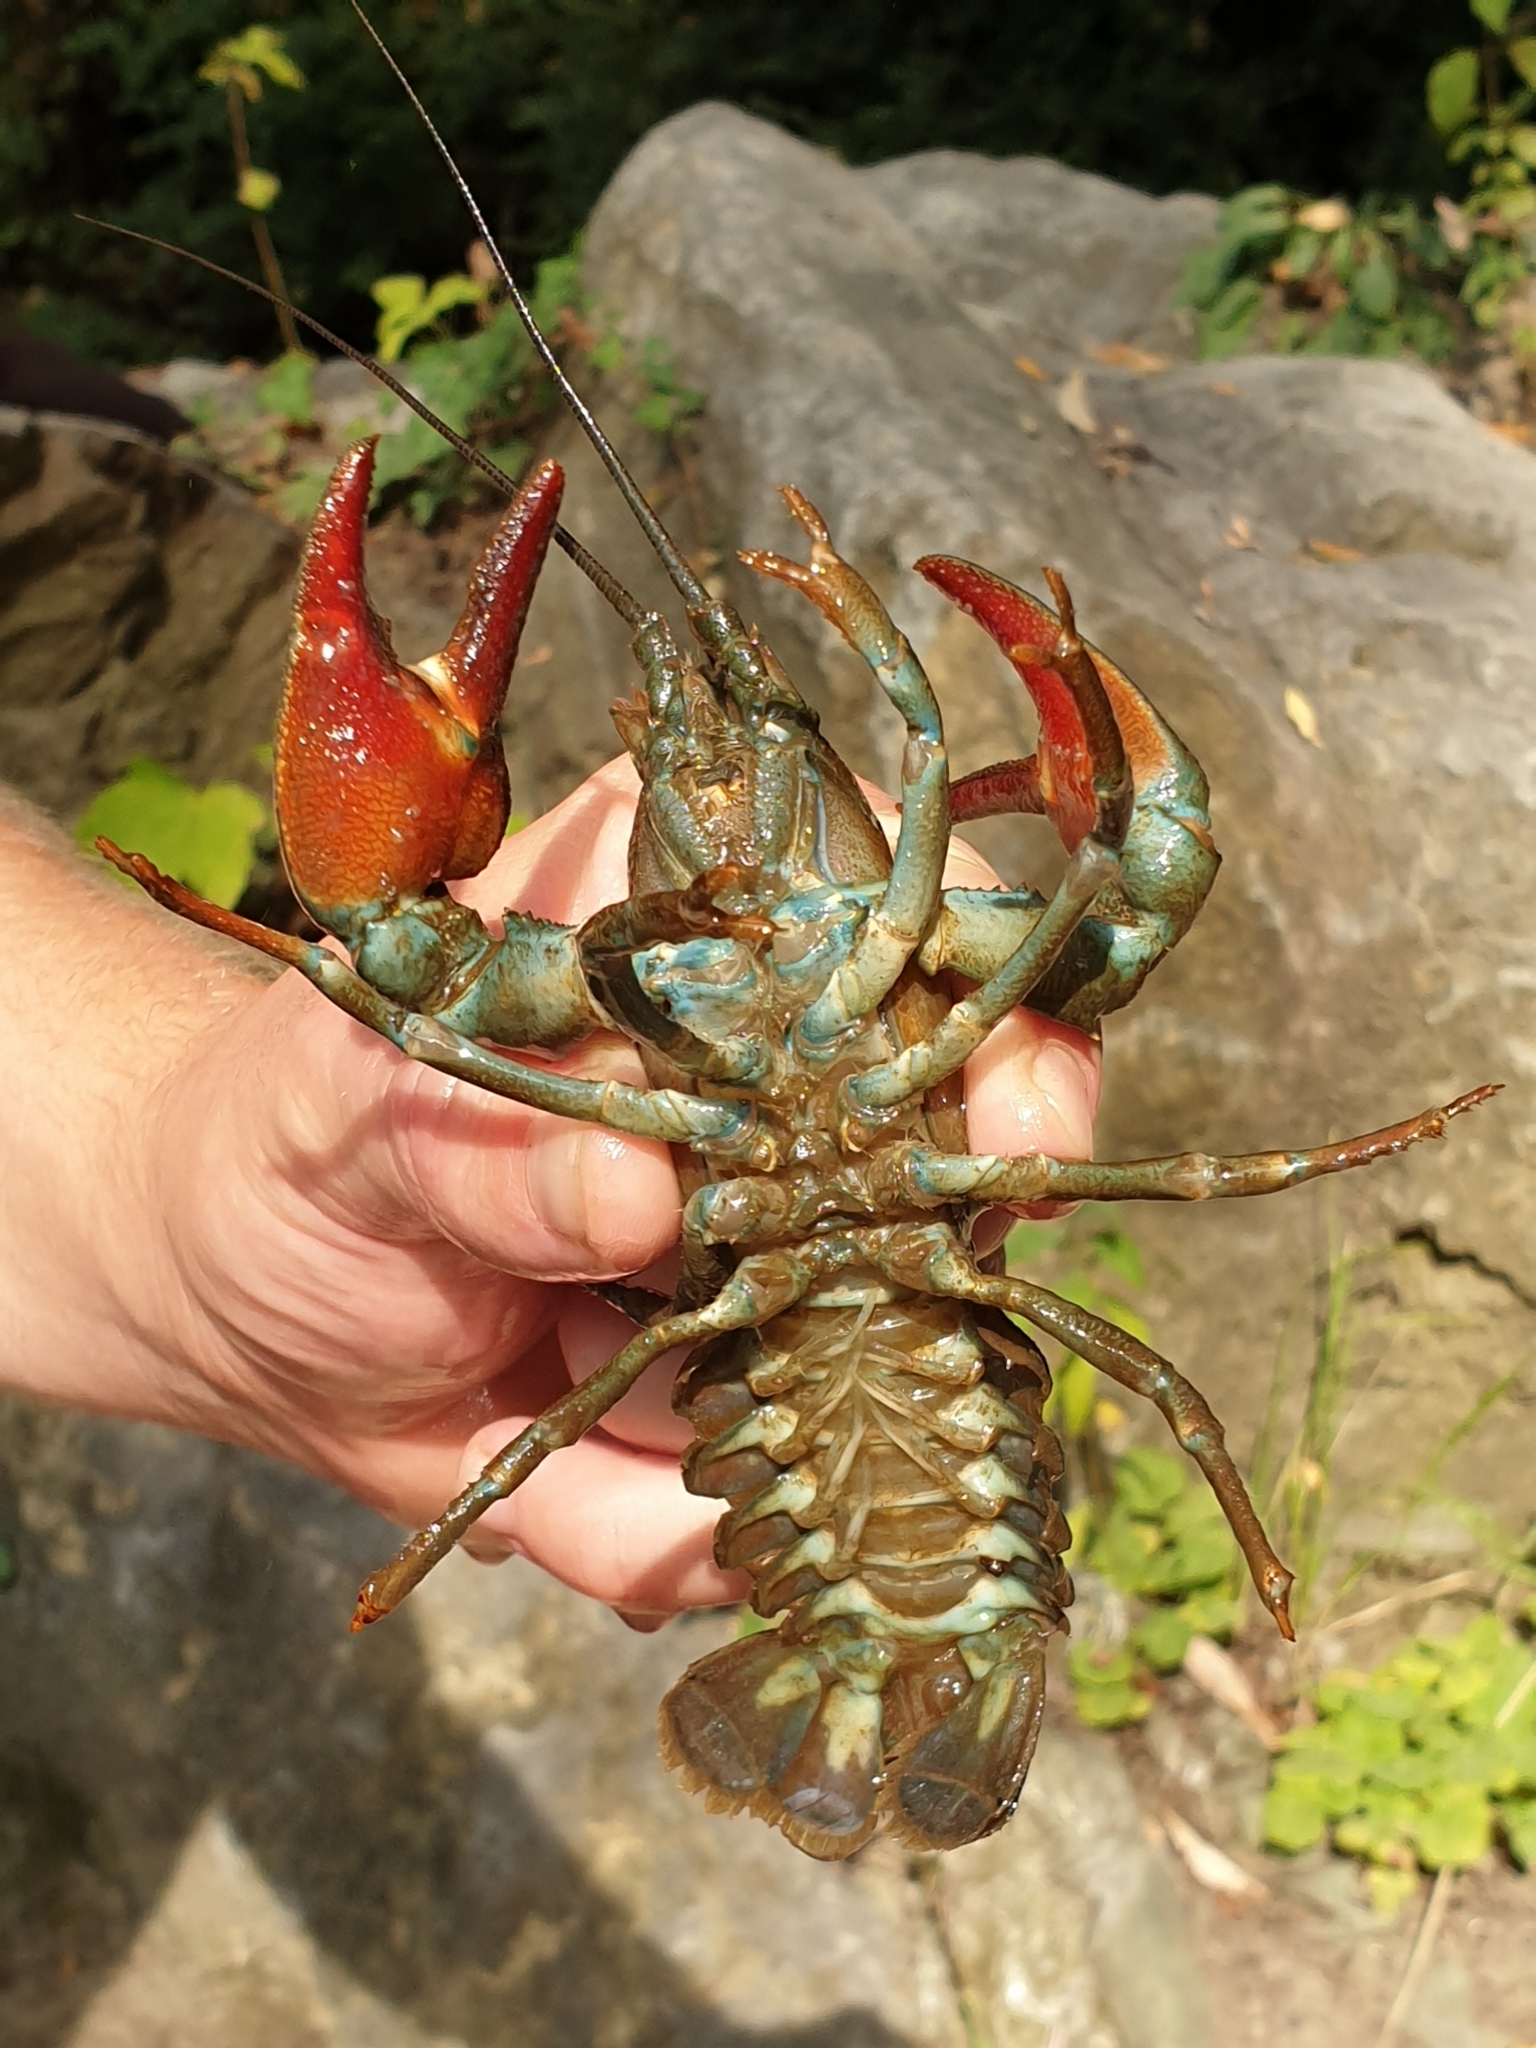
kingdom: Animalia
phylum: Arthropoda
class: Malacostraca
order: Decapoda
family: Astacidae
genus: Pacifastacus
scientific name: Pacifastacus leniusculus
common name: Signal crayfish
